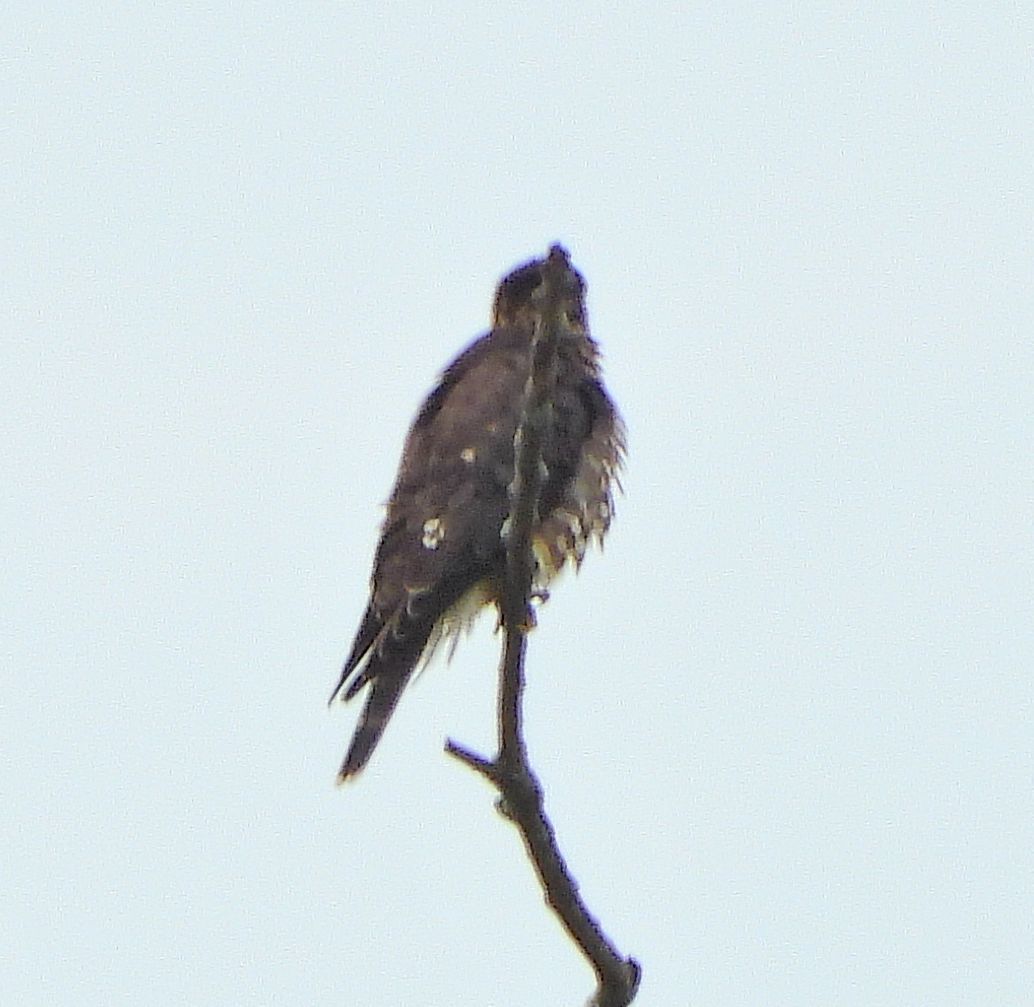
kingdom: Animalia
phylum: Chordata
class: Aves
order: Falconiformes
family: Falconidae
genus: Falco
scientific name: Falco columbarius
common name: Merlin
